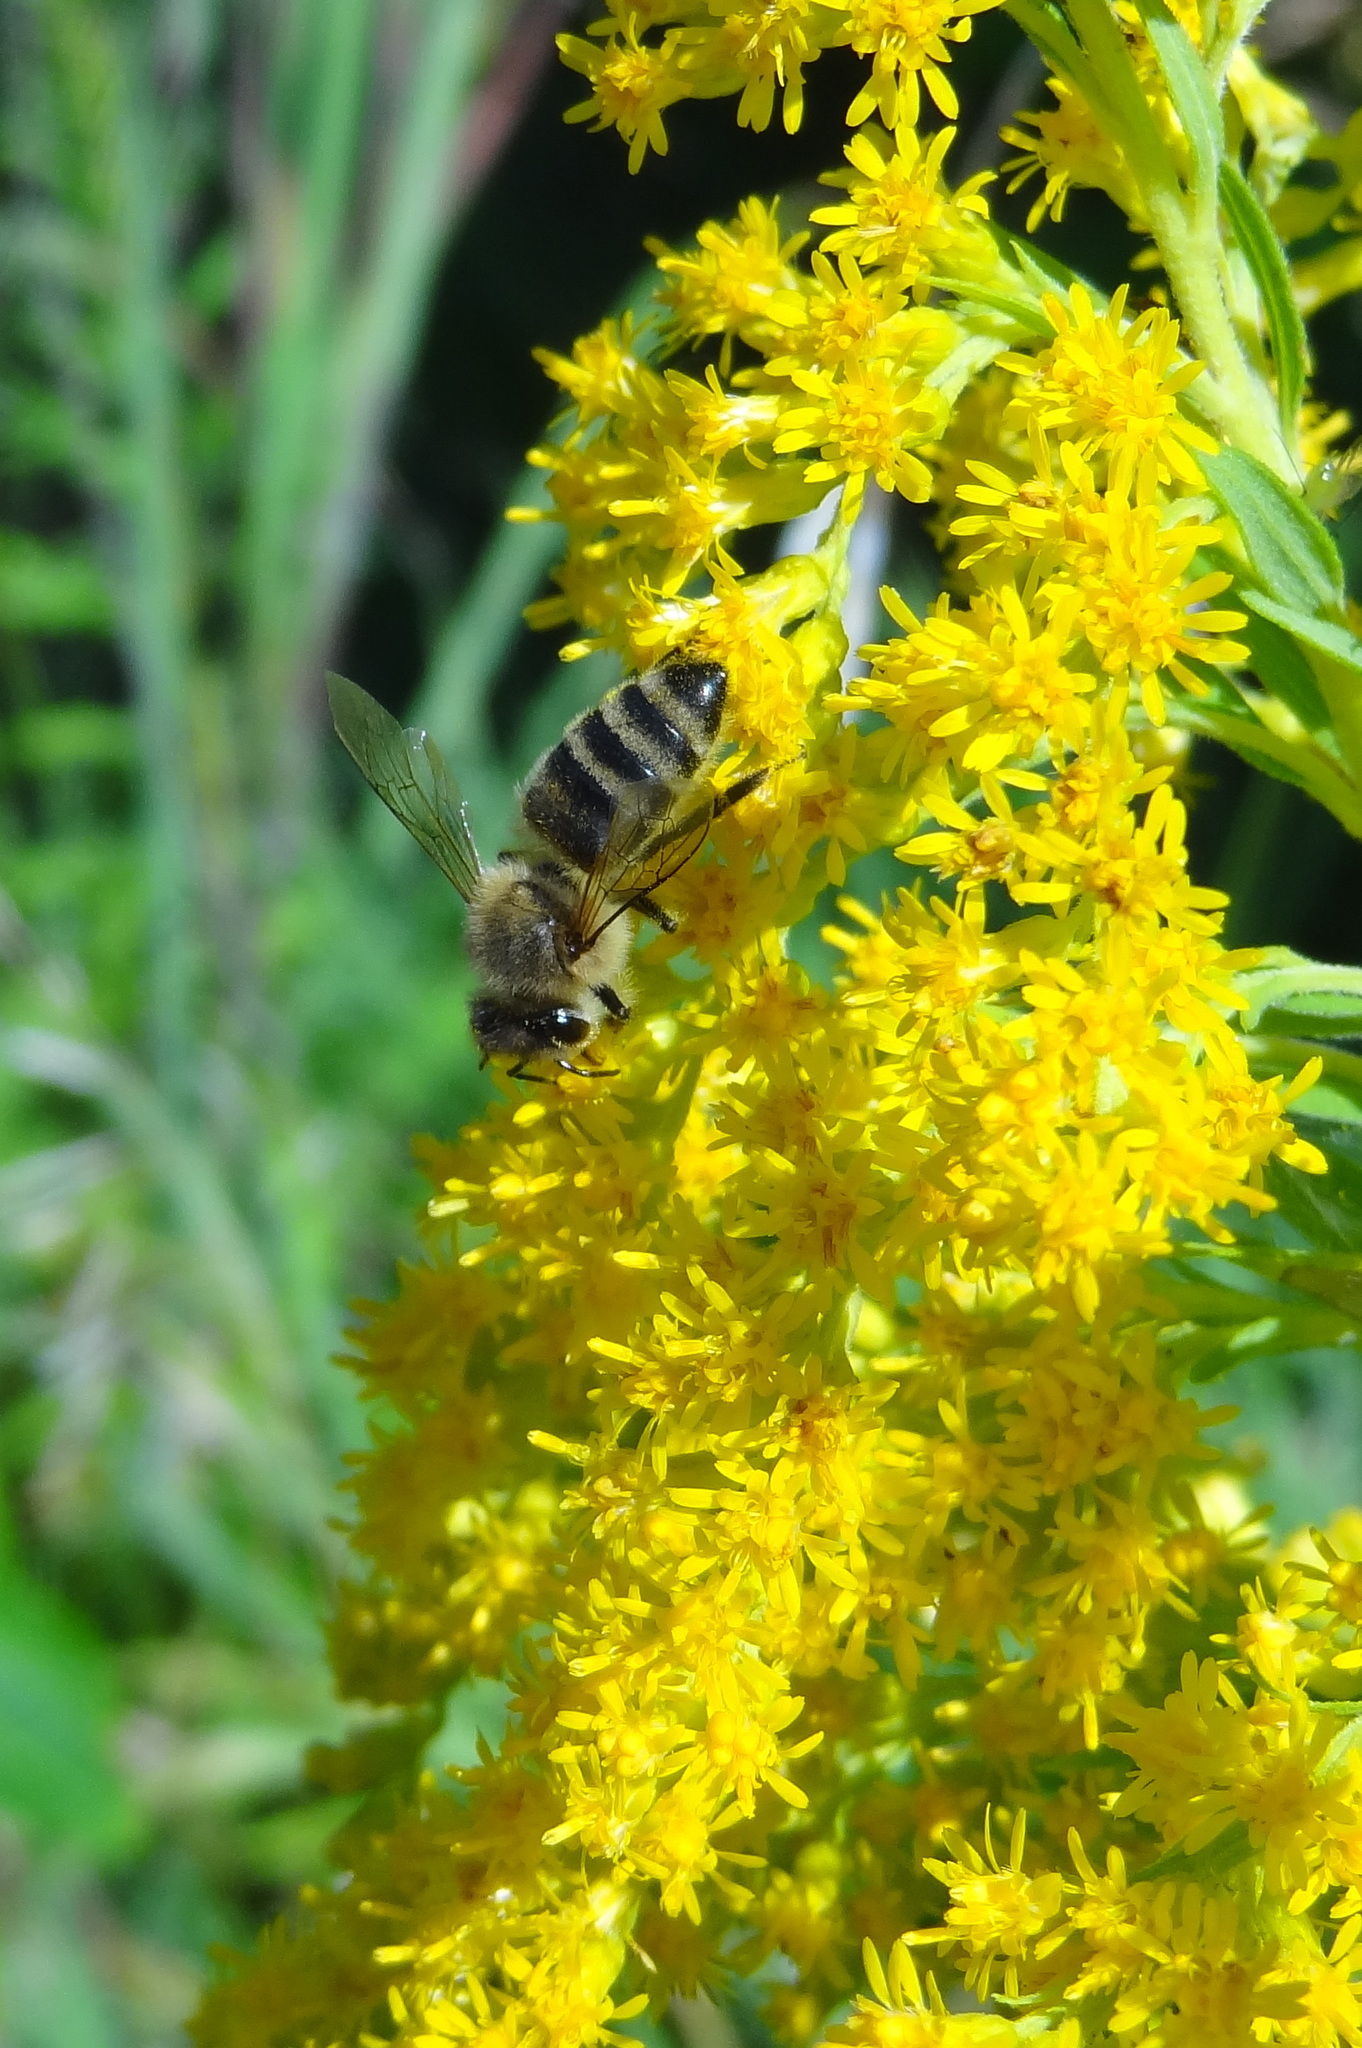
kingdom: Animalia
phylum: Arthropoda
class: Insecta
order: Hymenoptera
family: Apidae
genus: Apis
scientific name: Apis mellifera
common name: Honey bee
